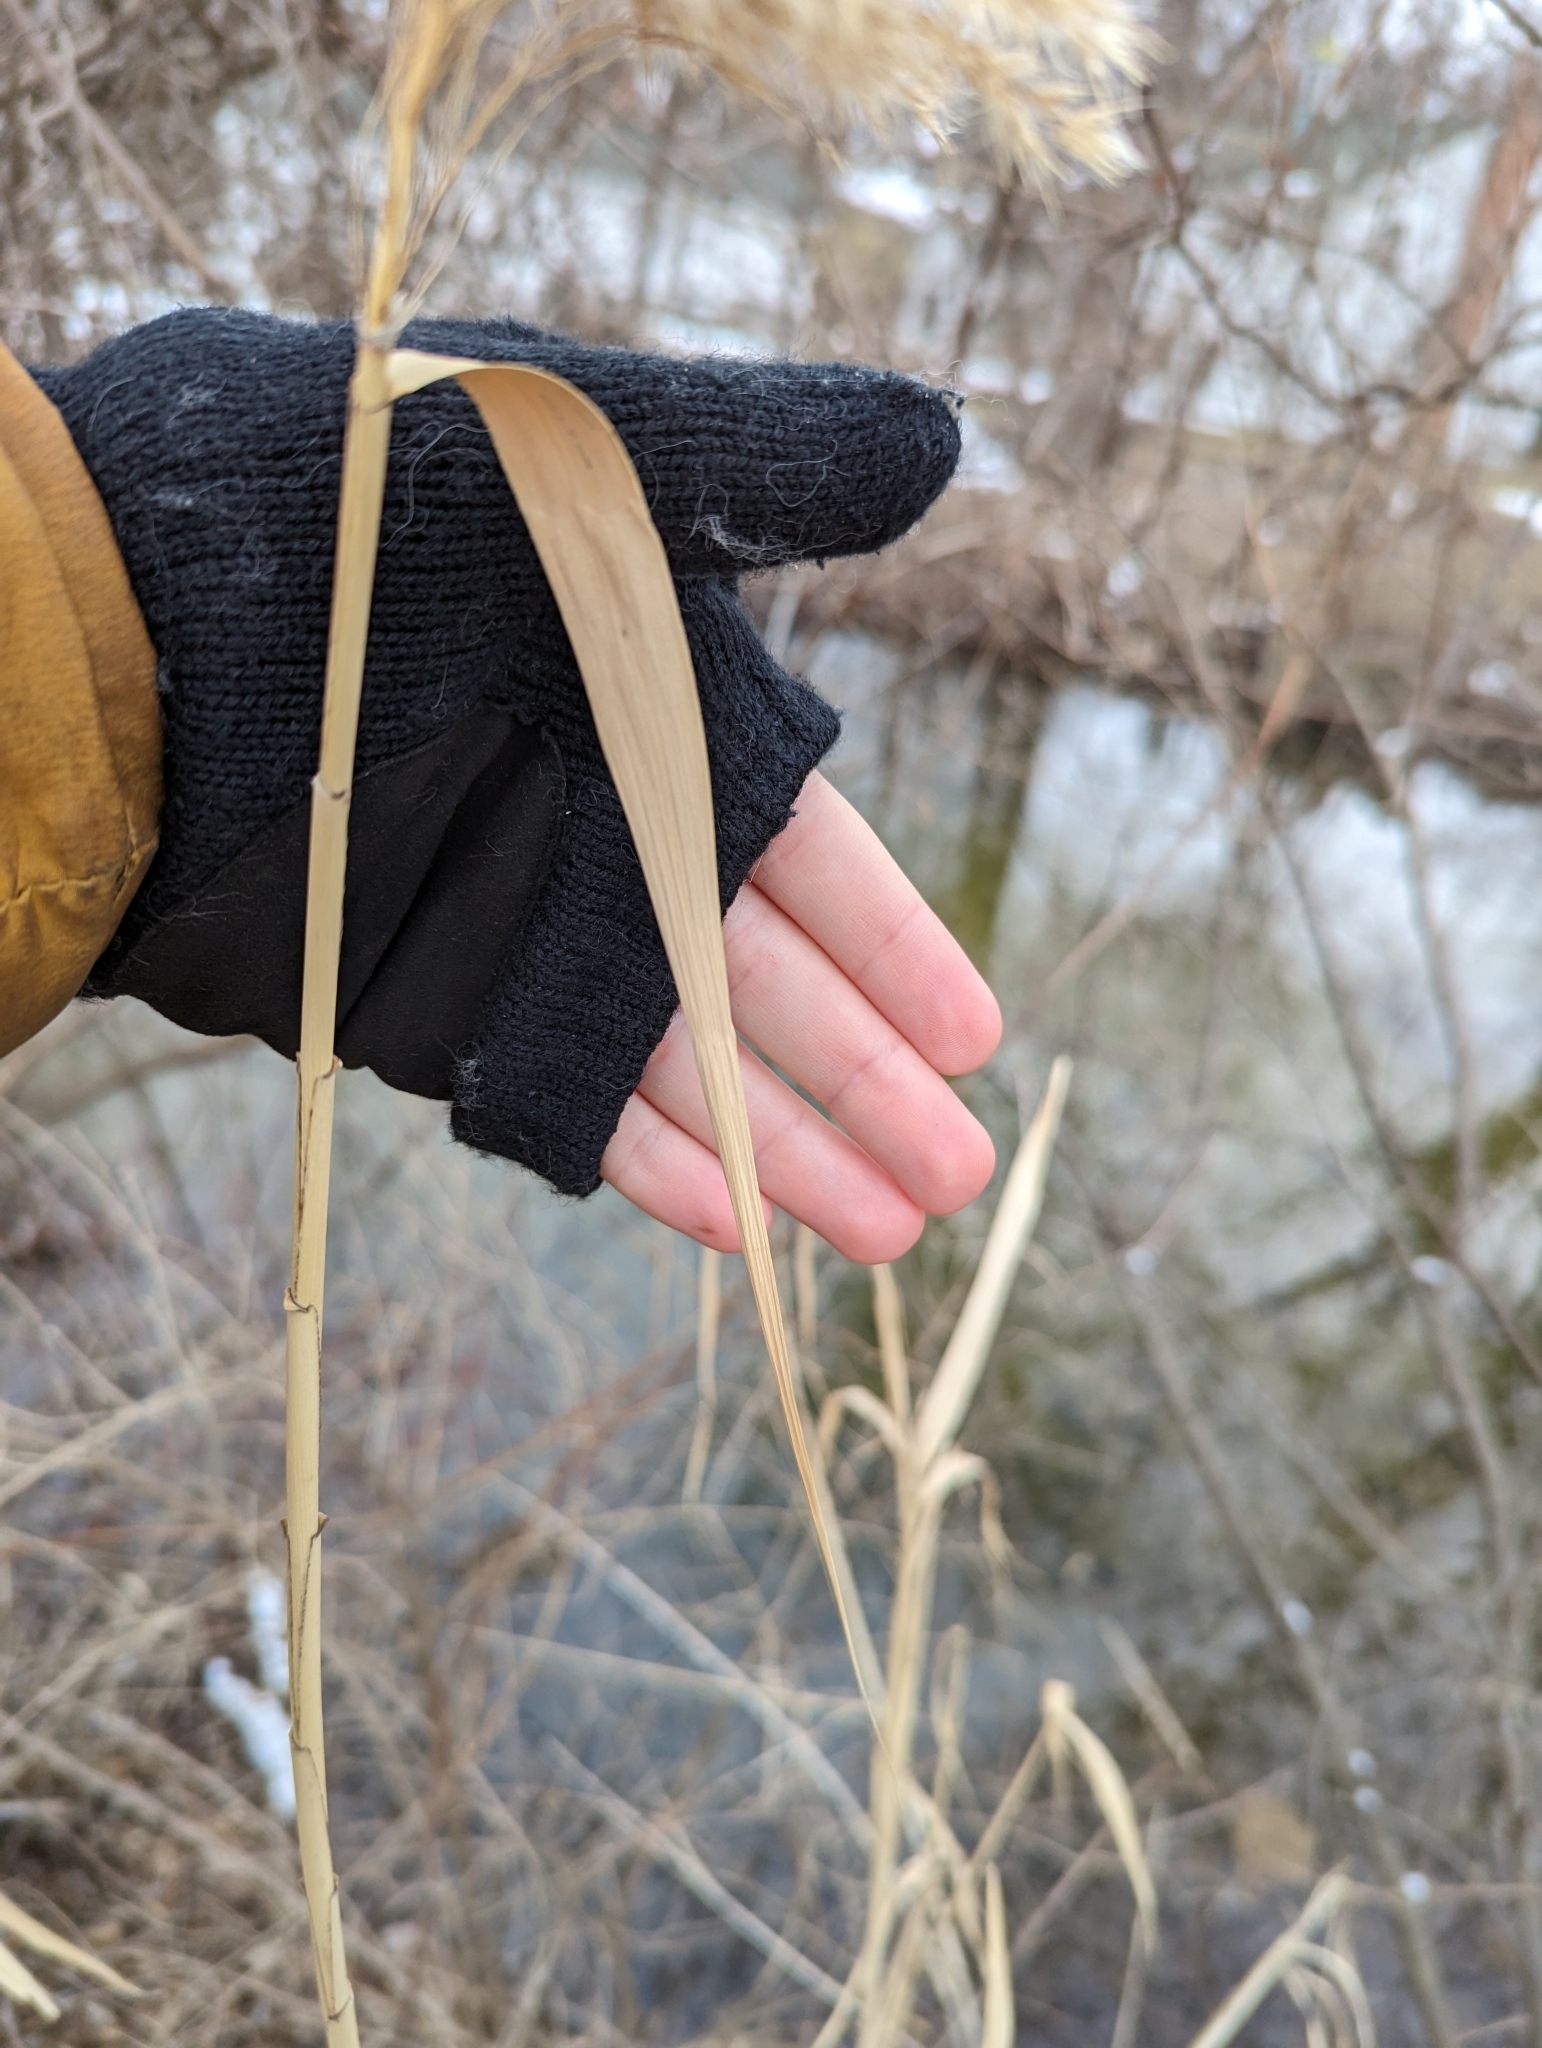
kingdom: Plantae
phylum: Tracheophyta
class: Liliopsida
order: Poales
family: Poaceae
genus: Phragmites
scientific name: Phragmites australis
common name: Common reed
